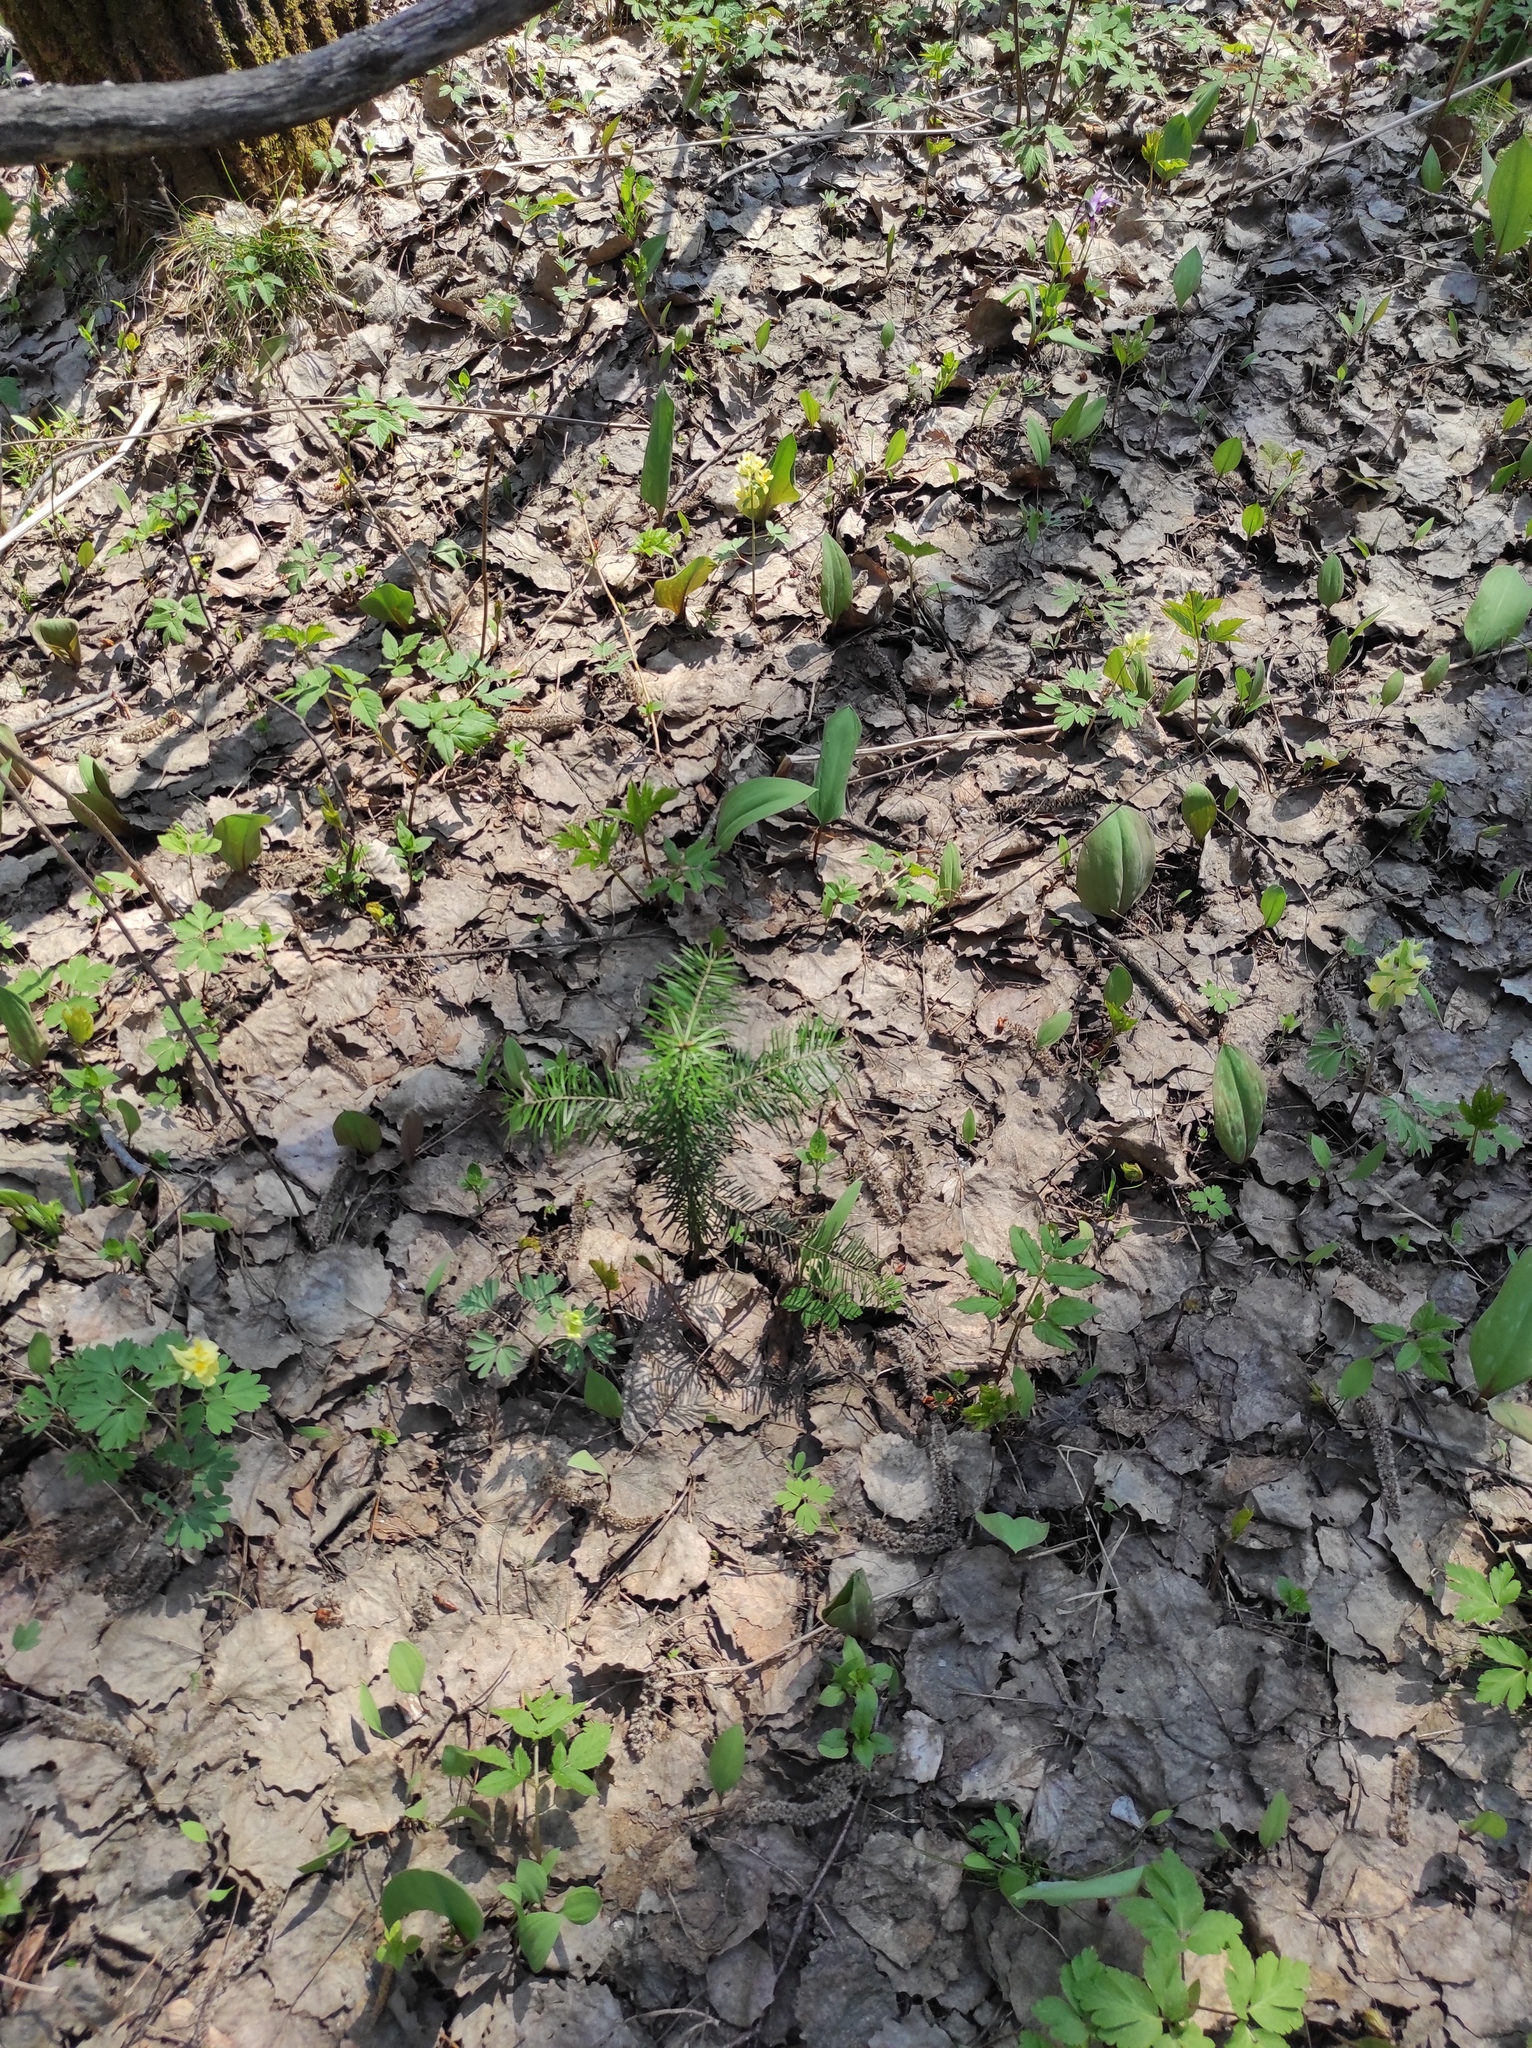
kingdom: Plantae
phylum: Tracheophyta
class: Pinopsida
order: Pinales
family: Pinaceae
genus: Abies
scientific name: Abies sibirica
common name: Siberian fir
